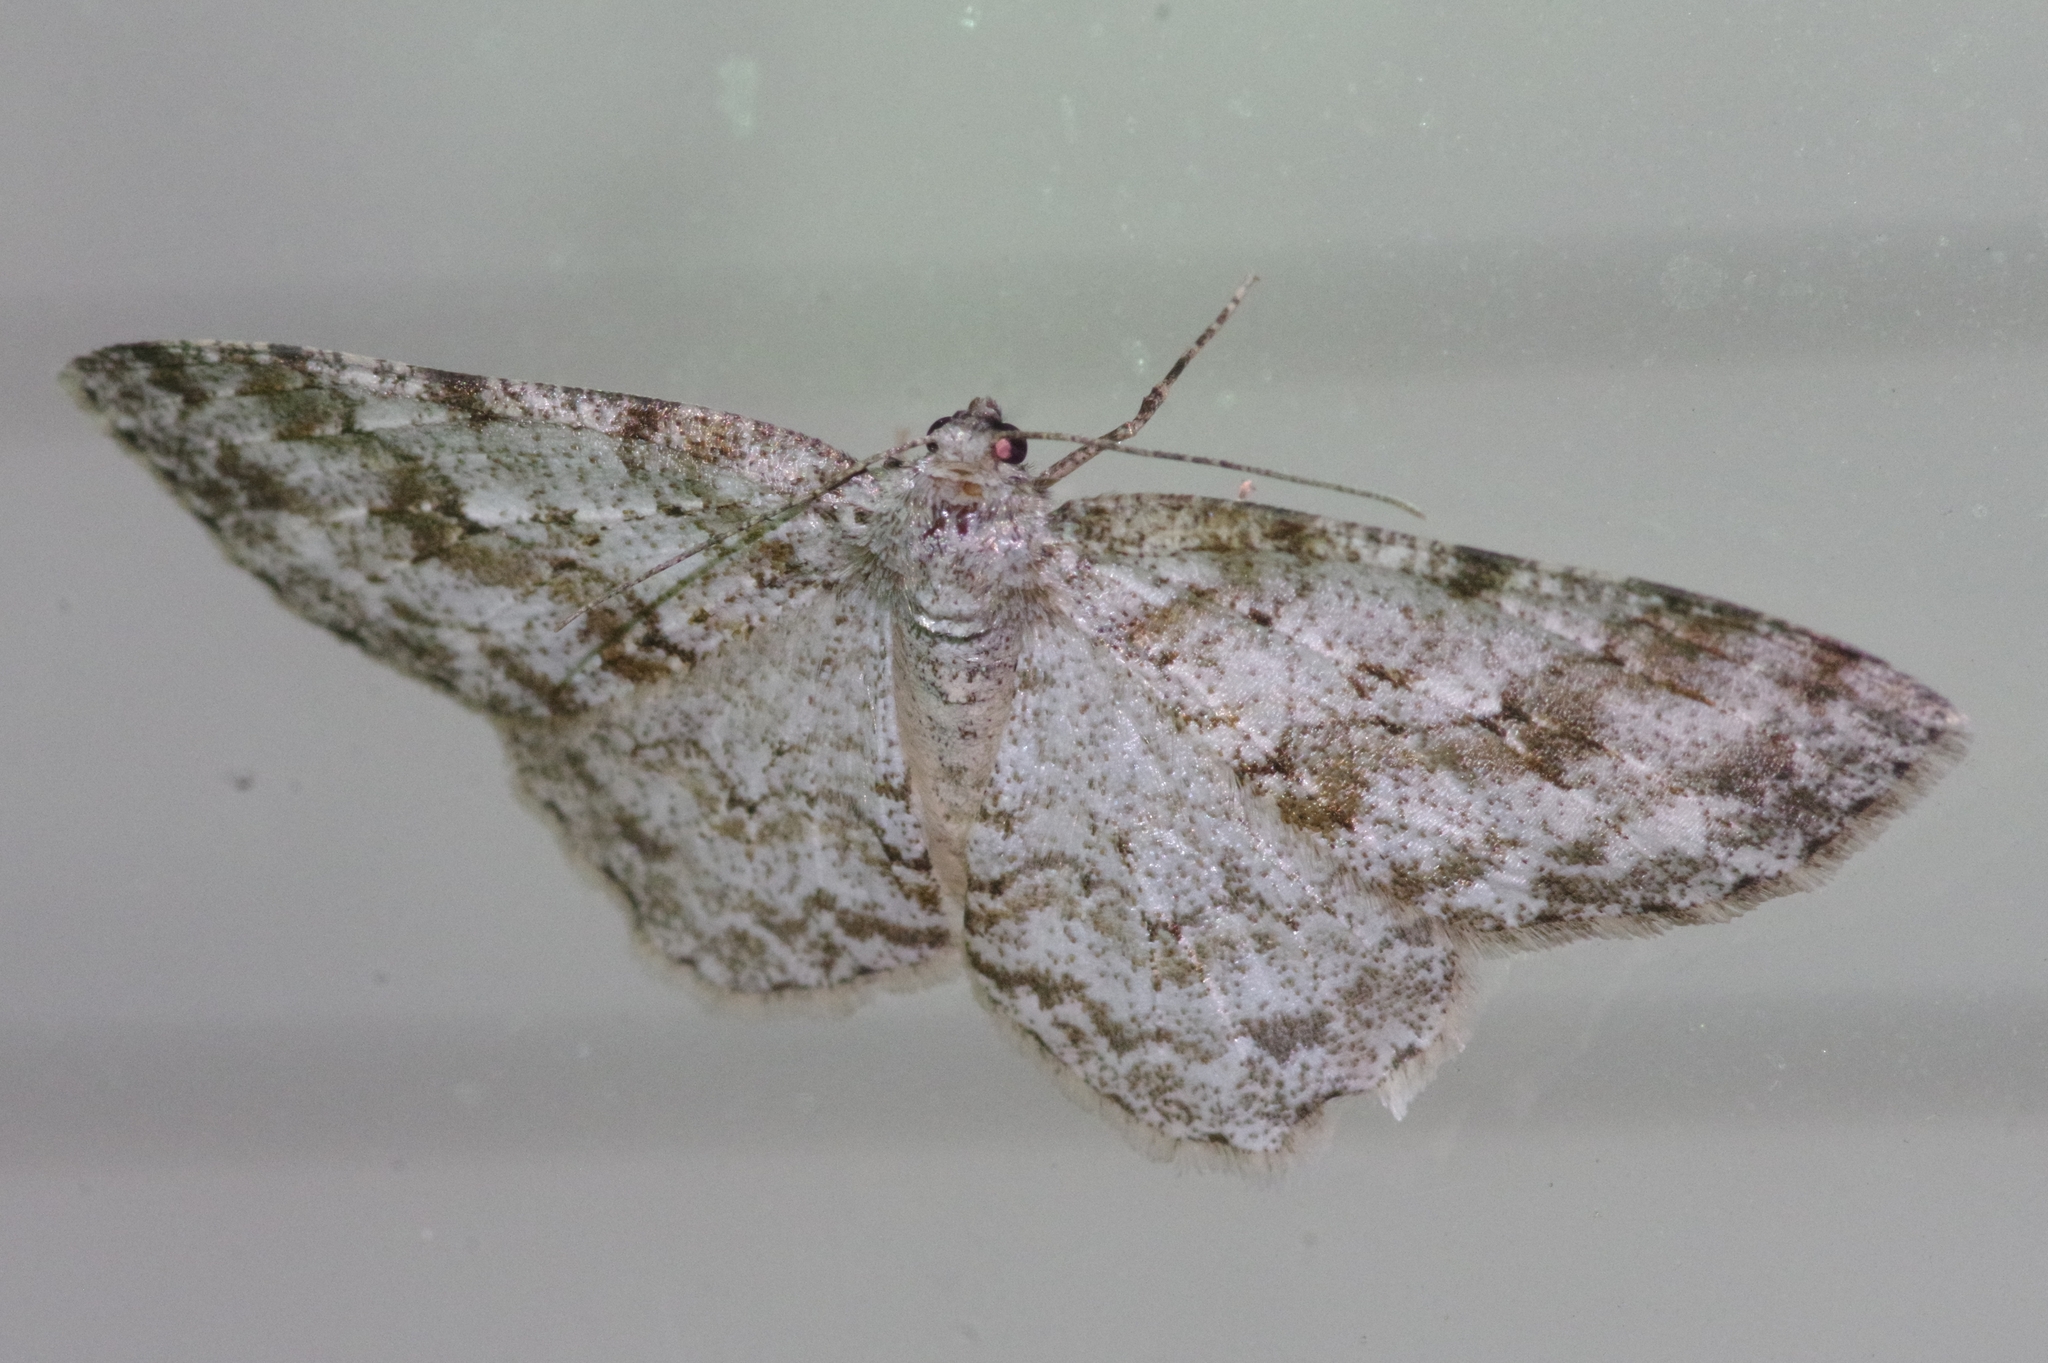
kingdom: Animalia
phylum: Arthropoda
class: Insecta
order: Lepidoptera
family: Geometridae
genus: Ectropis
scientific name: Ectropis crepuscularia
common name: Engrailed
